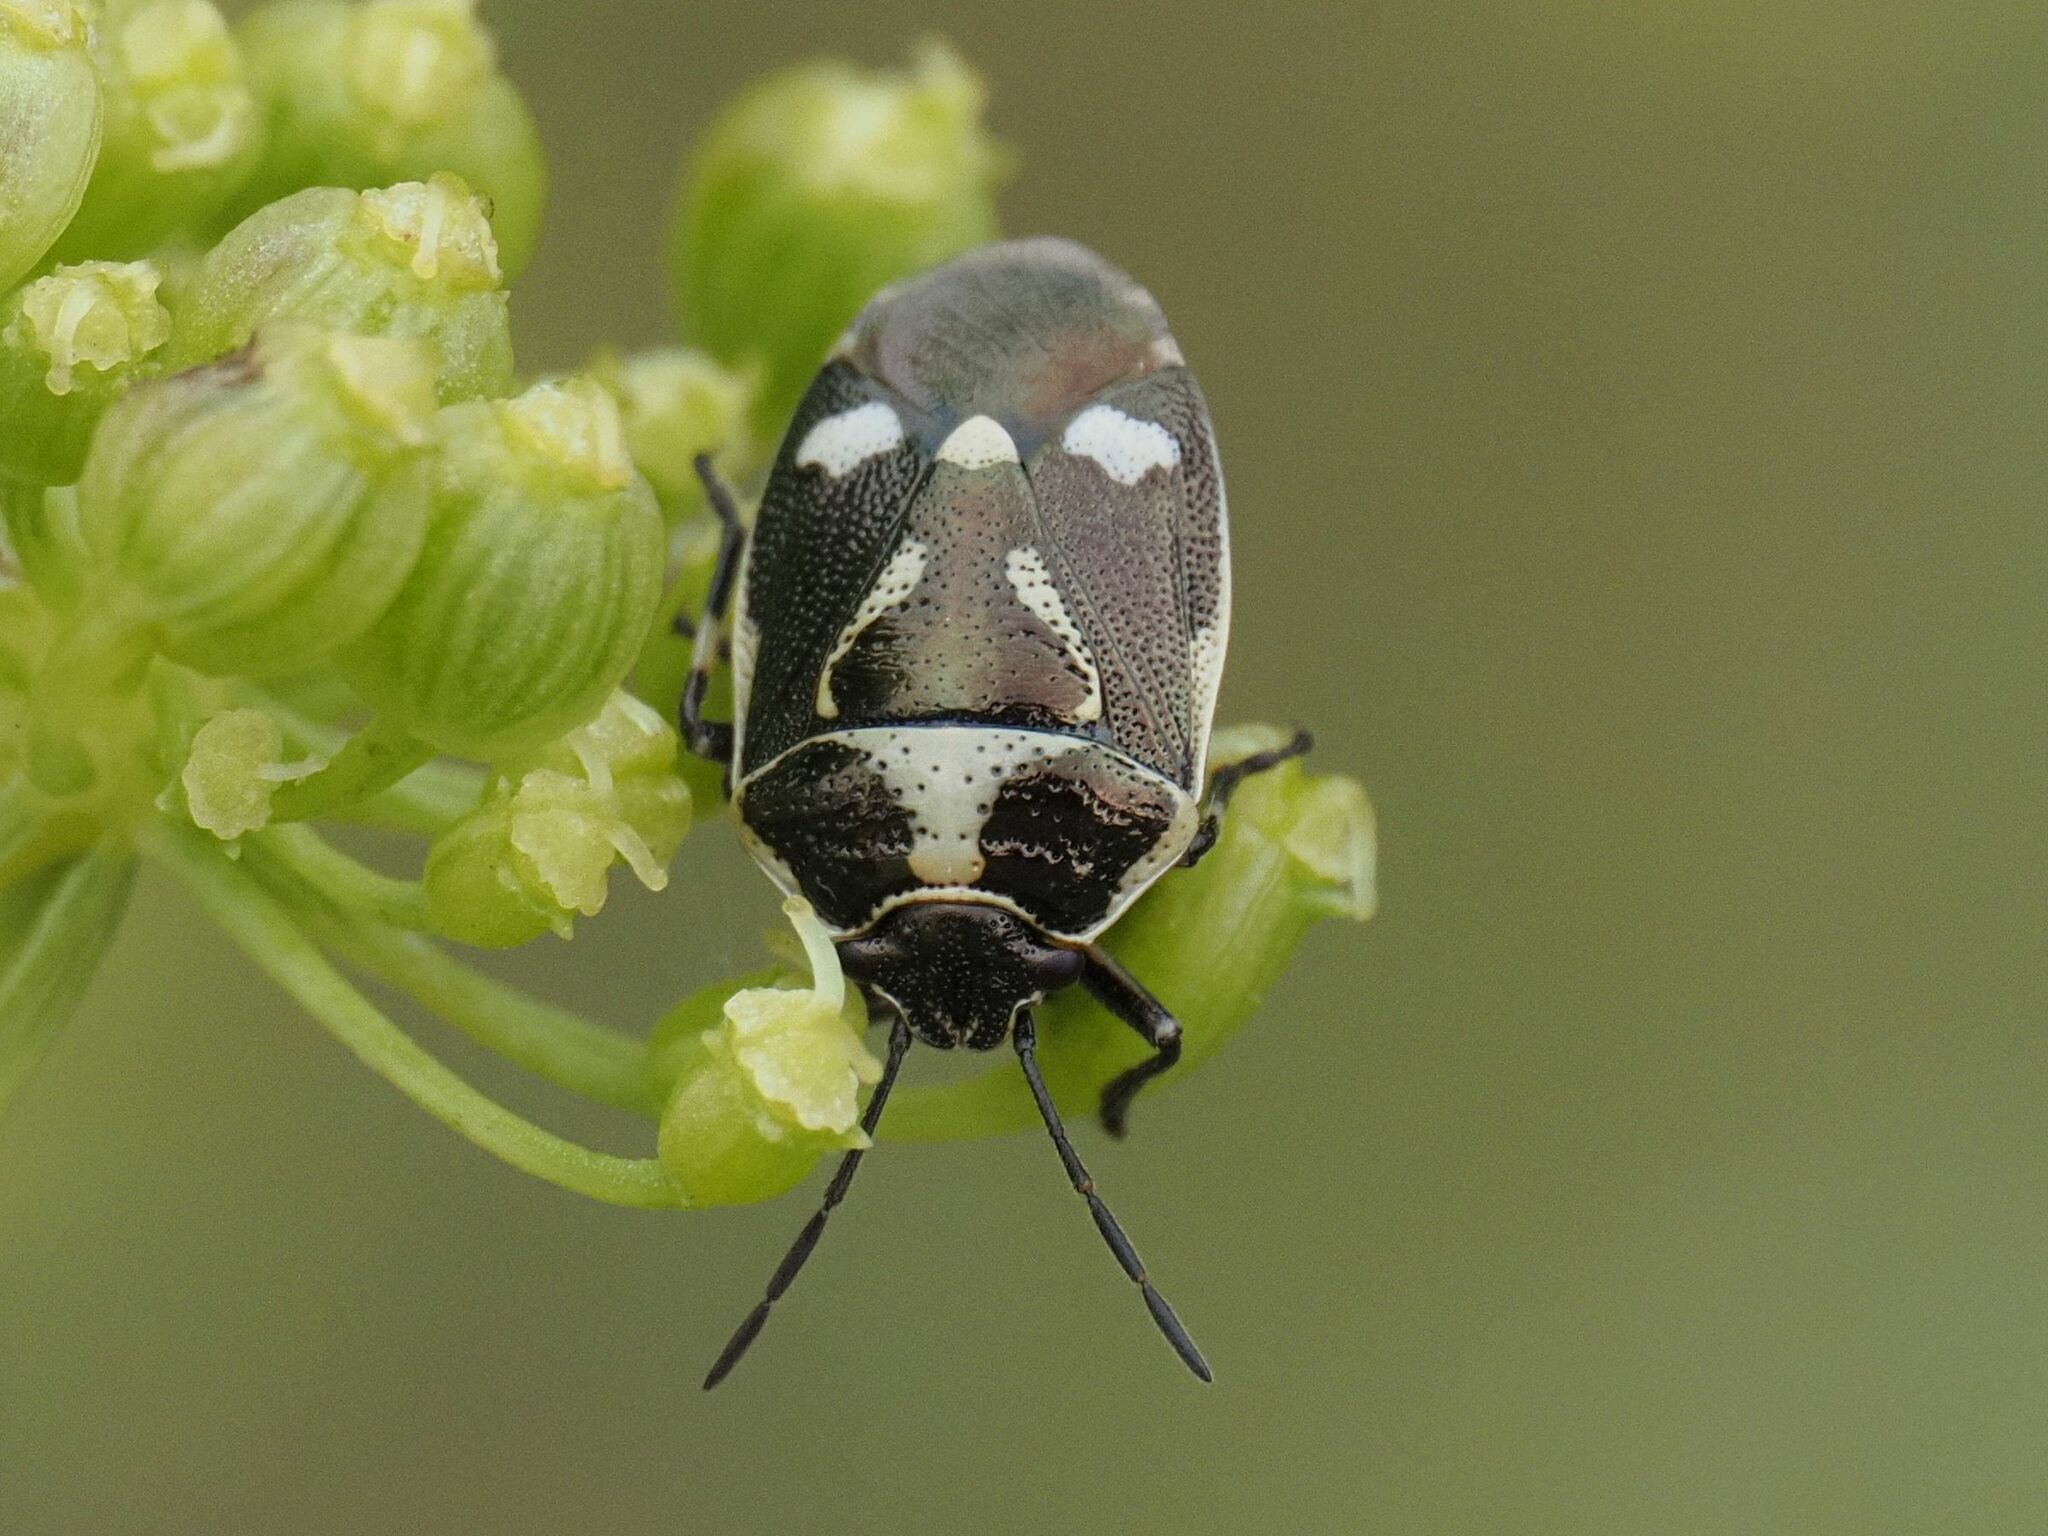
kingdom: Animalia
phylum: Arthropoda
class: Insecta
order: Hemiptera
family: Pentatomidae
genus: Eurydema
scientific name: Eurydema oleracea
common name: Cabbage bug
